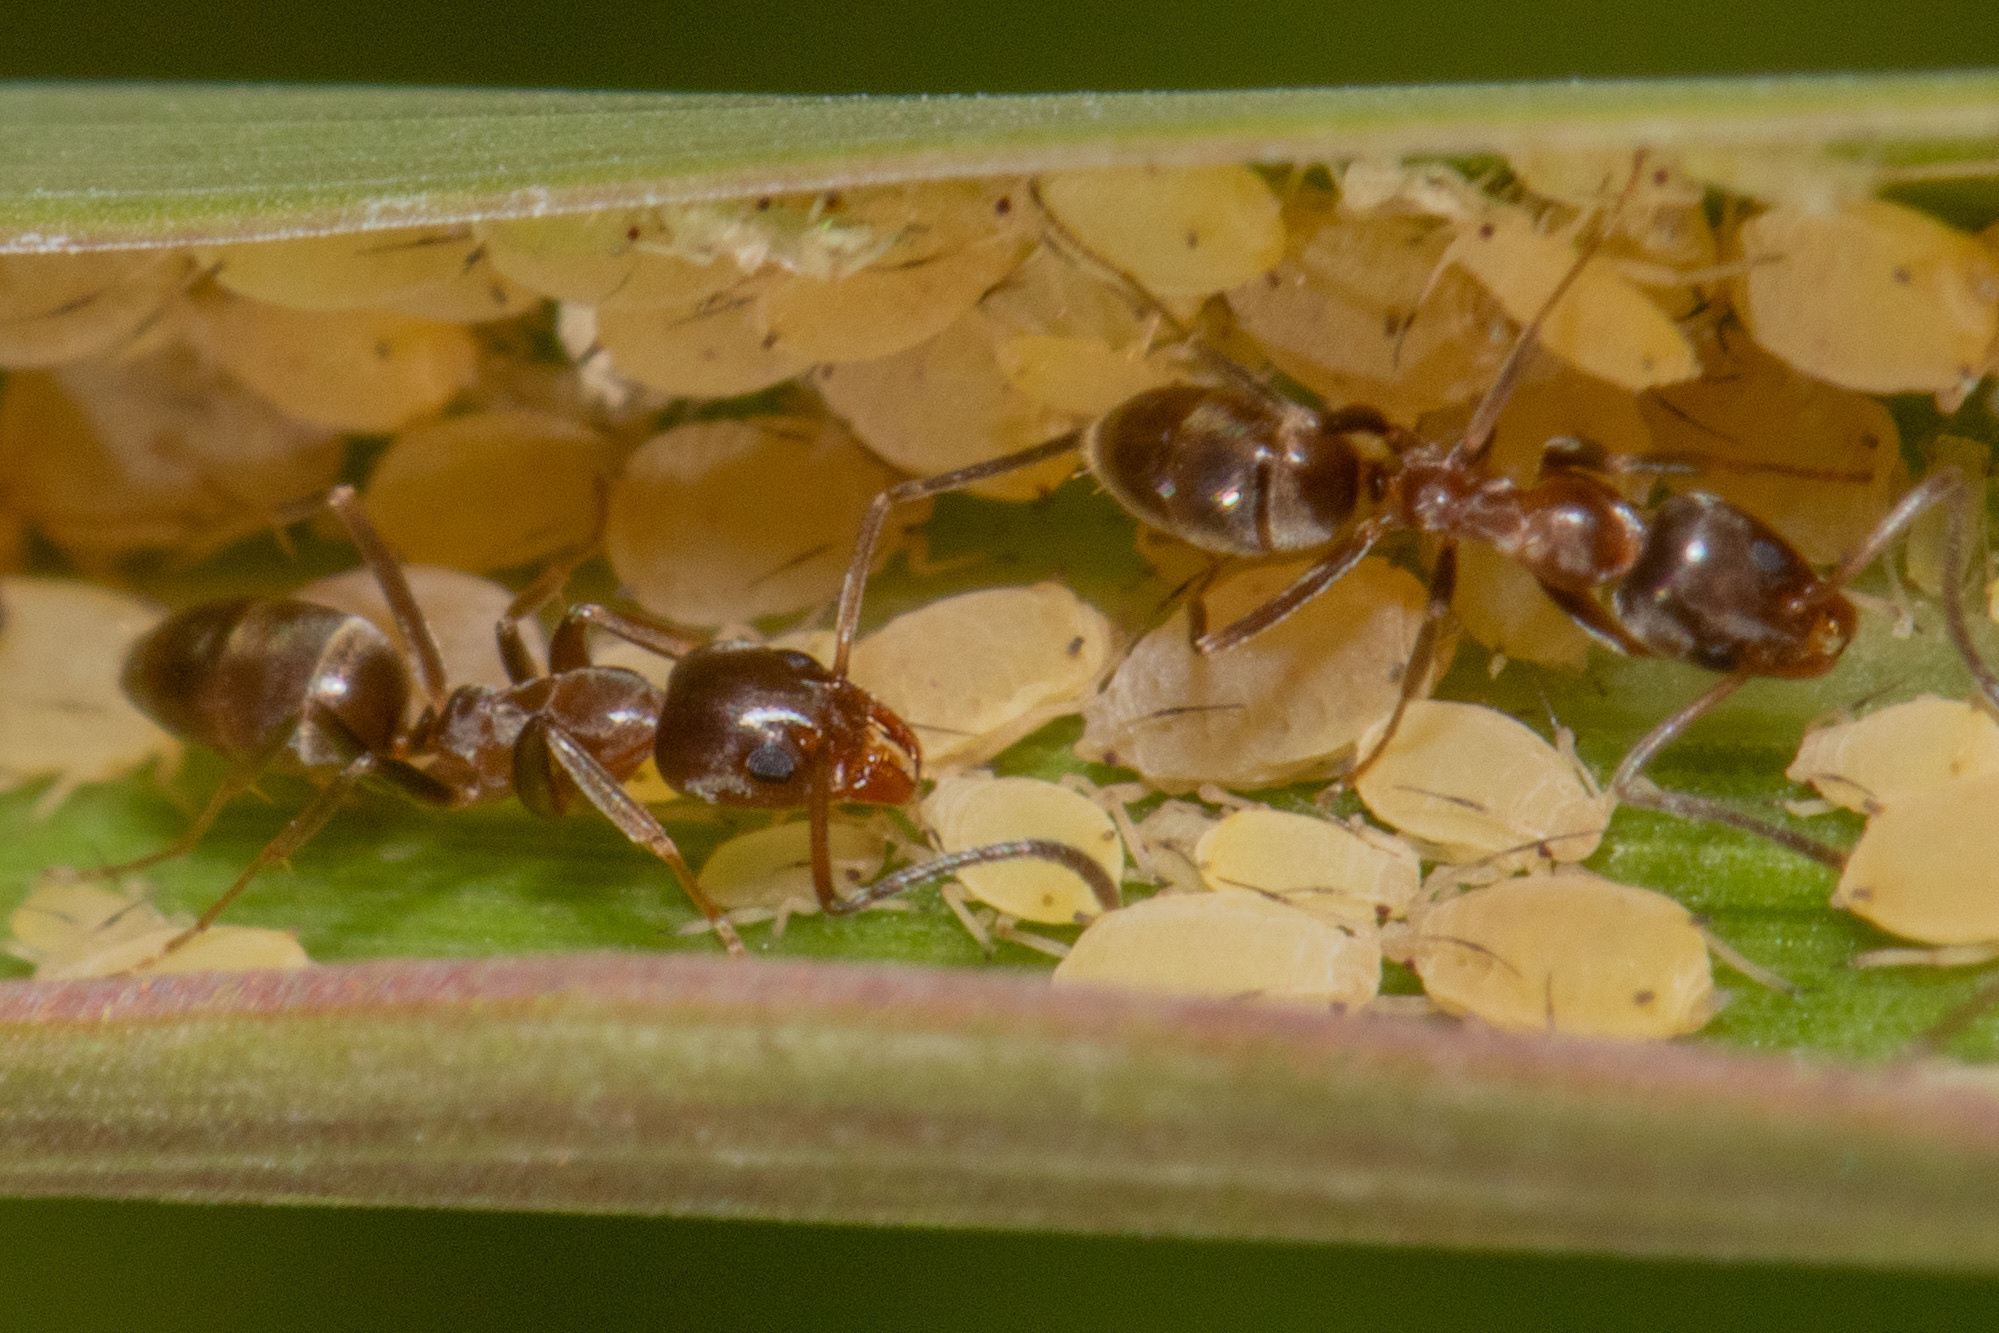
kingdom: Animalia
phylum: Arthropoda
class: Insecta
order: Hymenoptera
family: Formicidae
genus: Linepithema
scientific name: Linepithema humile
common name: Argentine ant
